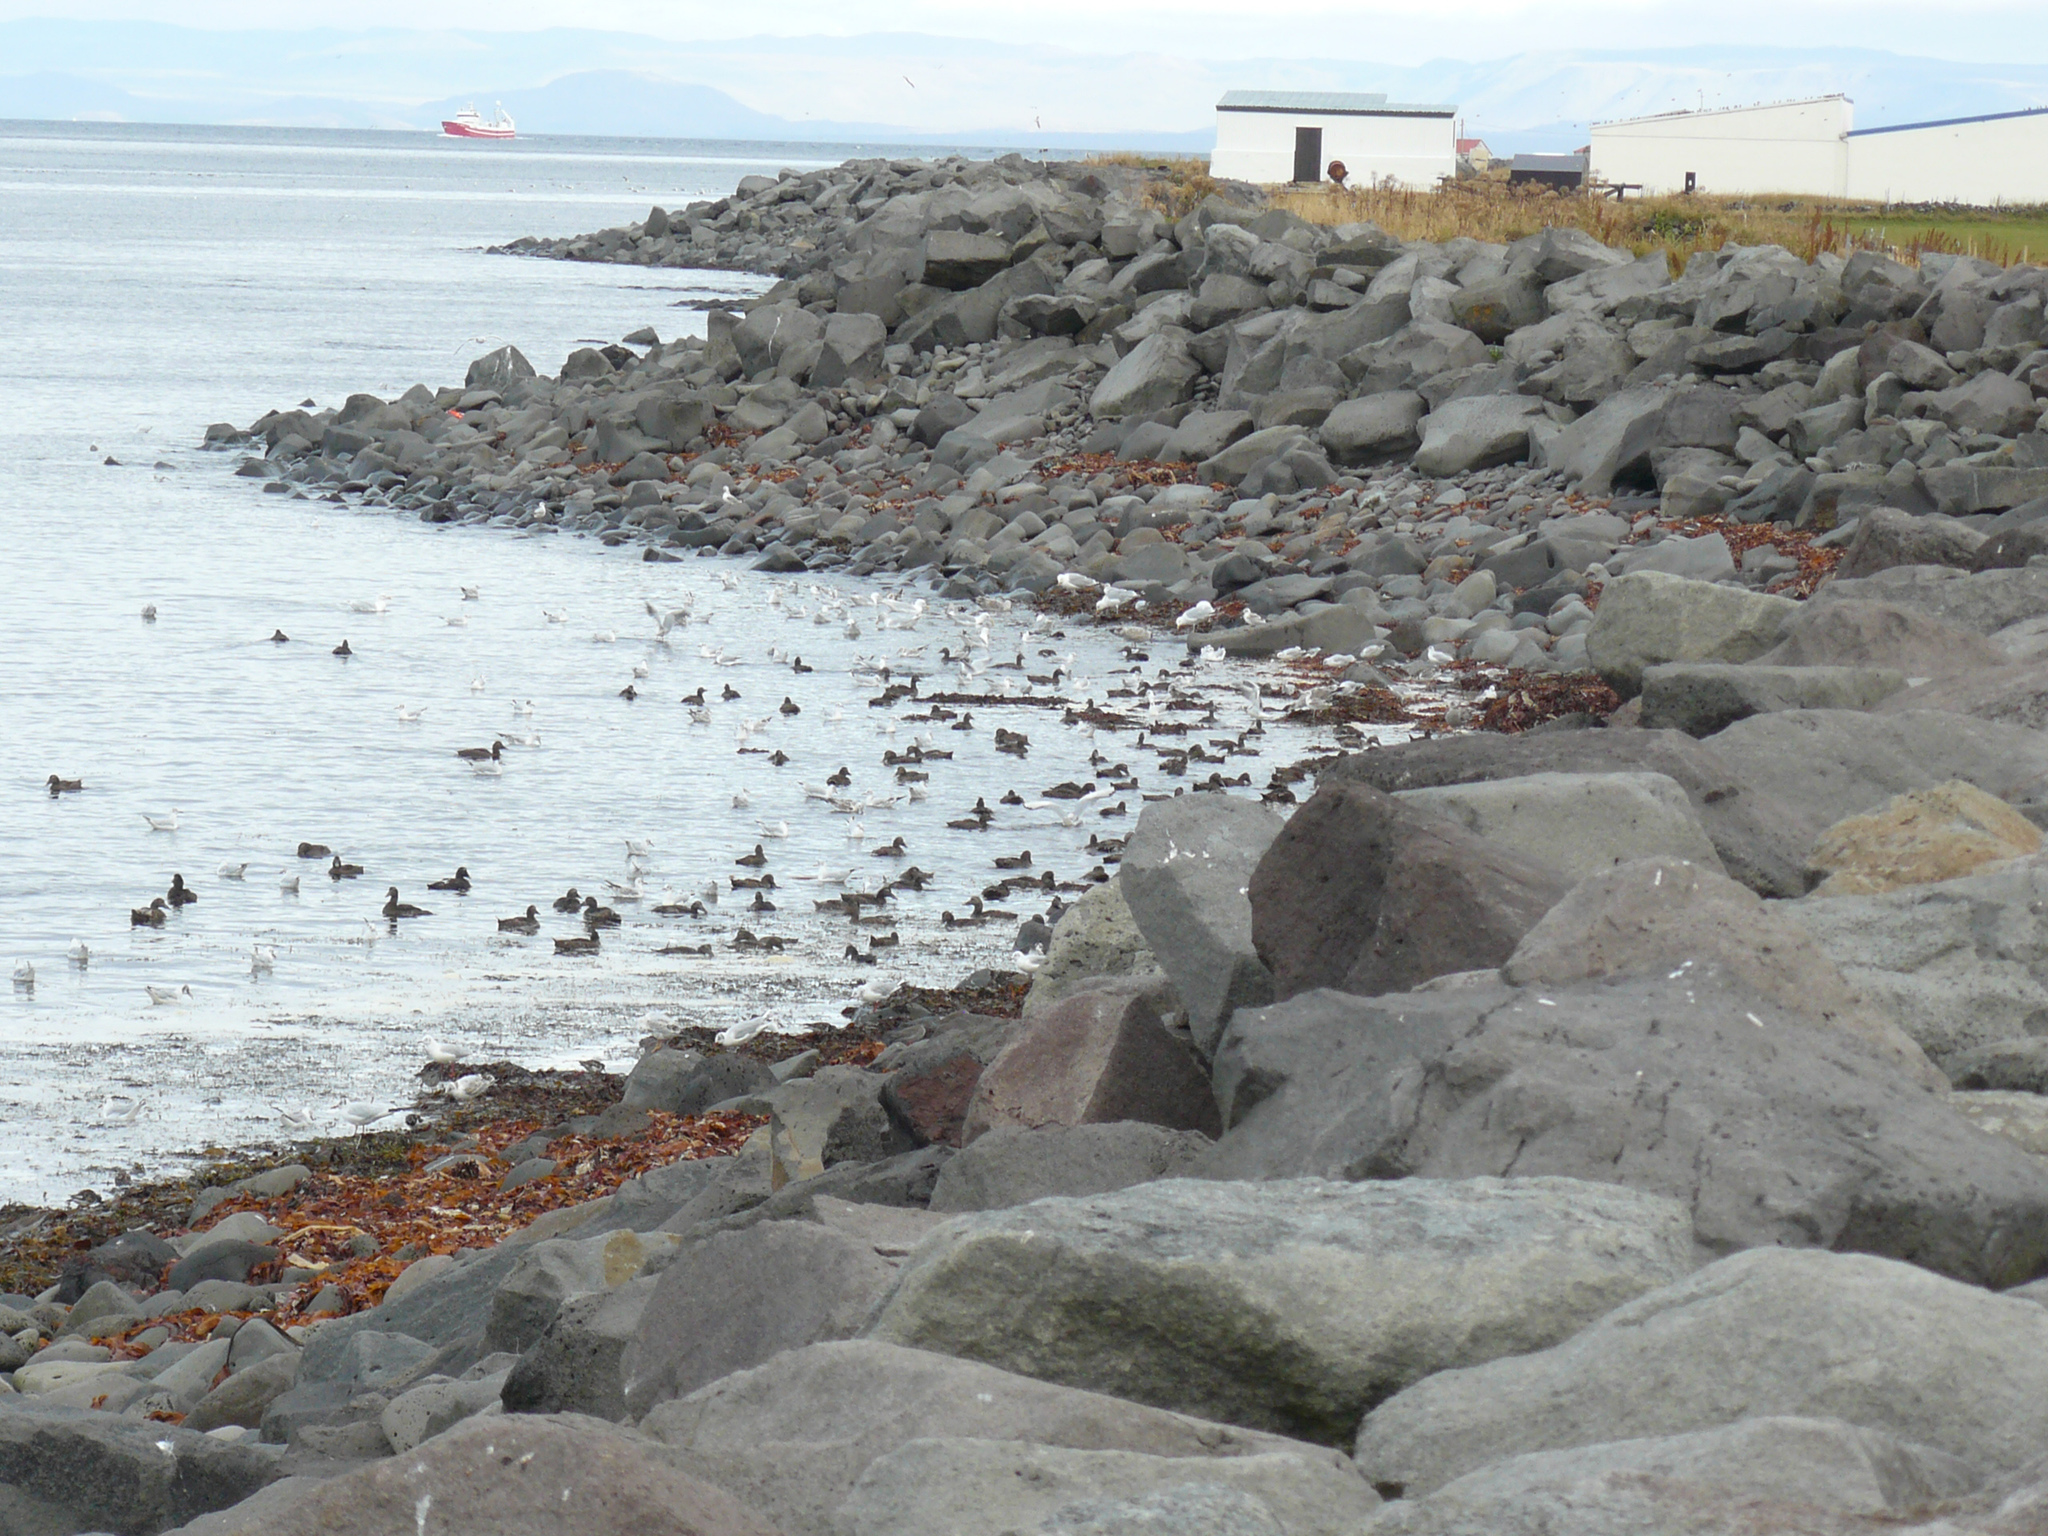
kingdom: Animalia
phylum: Chordata
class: Aves
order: Anseriformes
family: Anatidae
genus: Somateria
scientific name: Somateria mollissima
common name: Common eider
